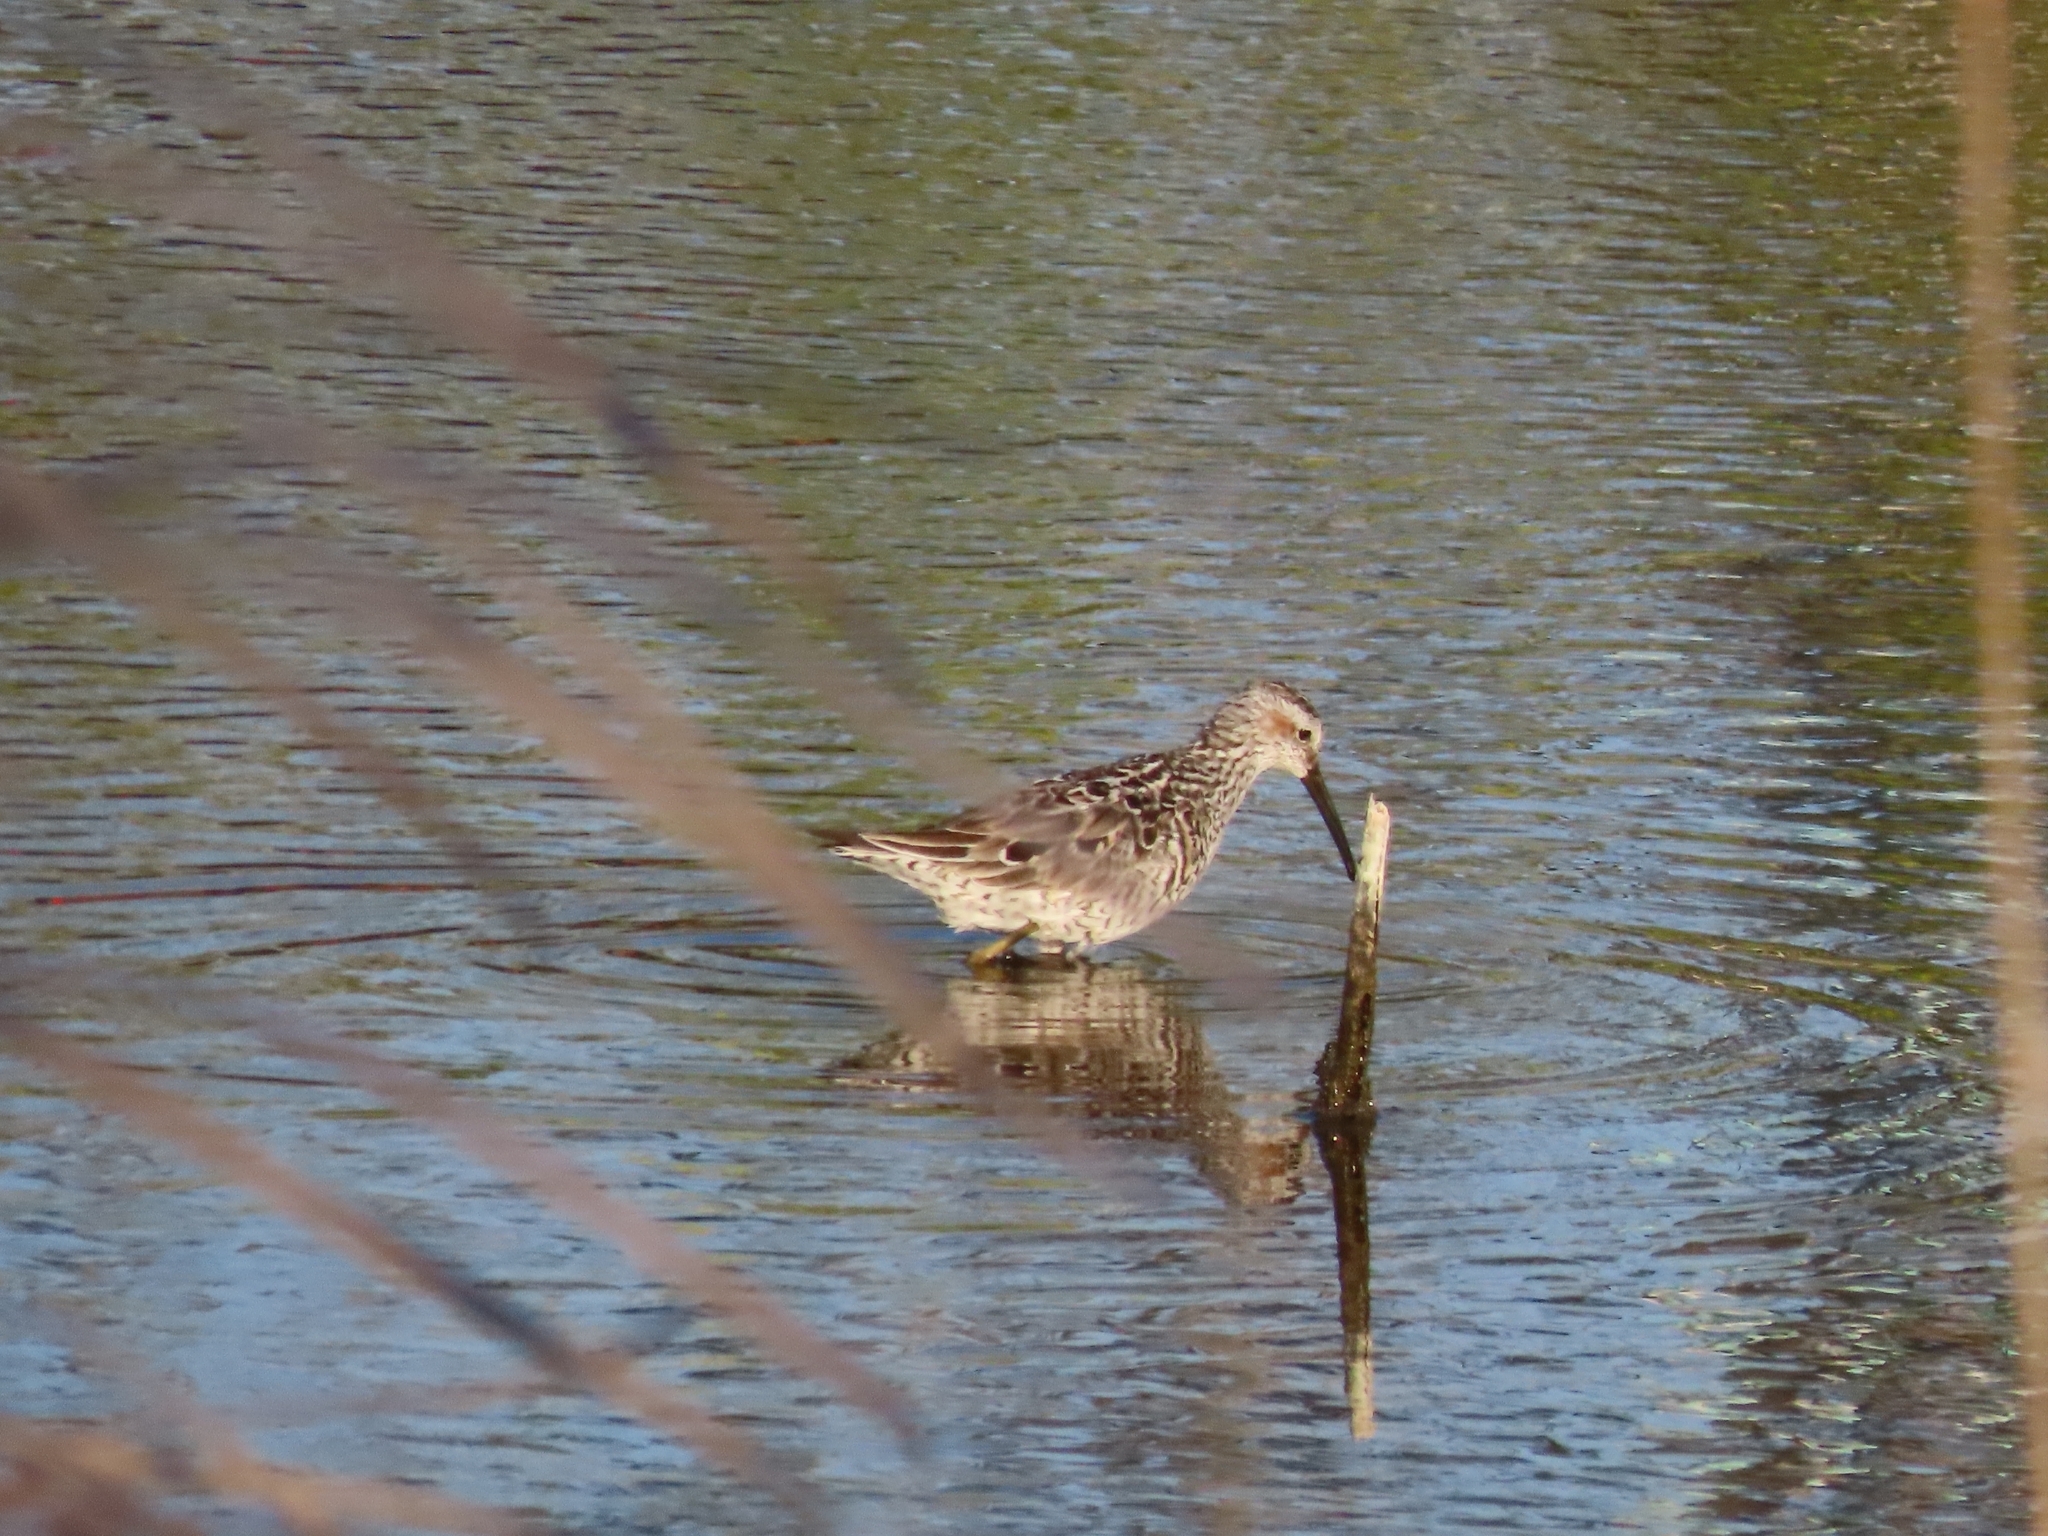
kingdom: Animalia
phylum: Chordata
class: Aves
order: Charadriiformes
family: Scolopacidae
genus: Calidris
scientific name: Calidris himantopus
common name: Stilt sandpiper
